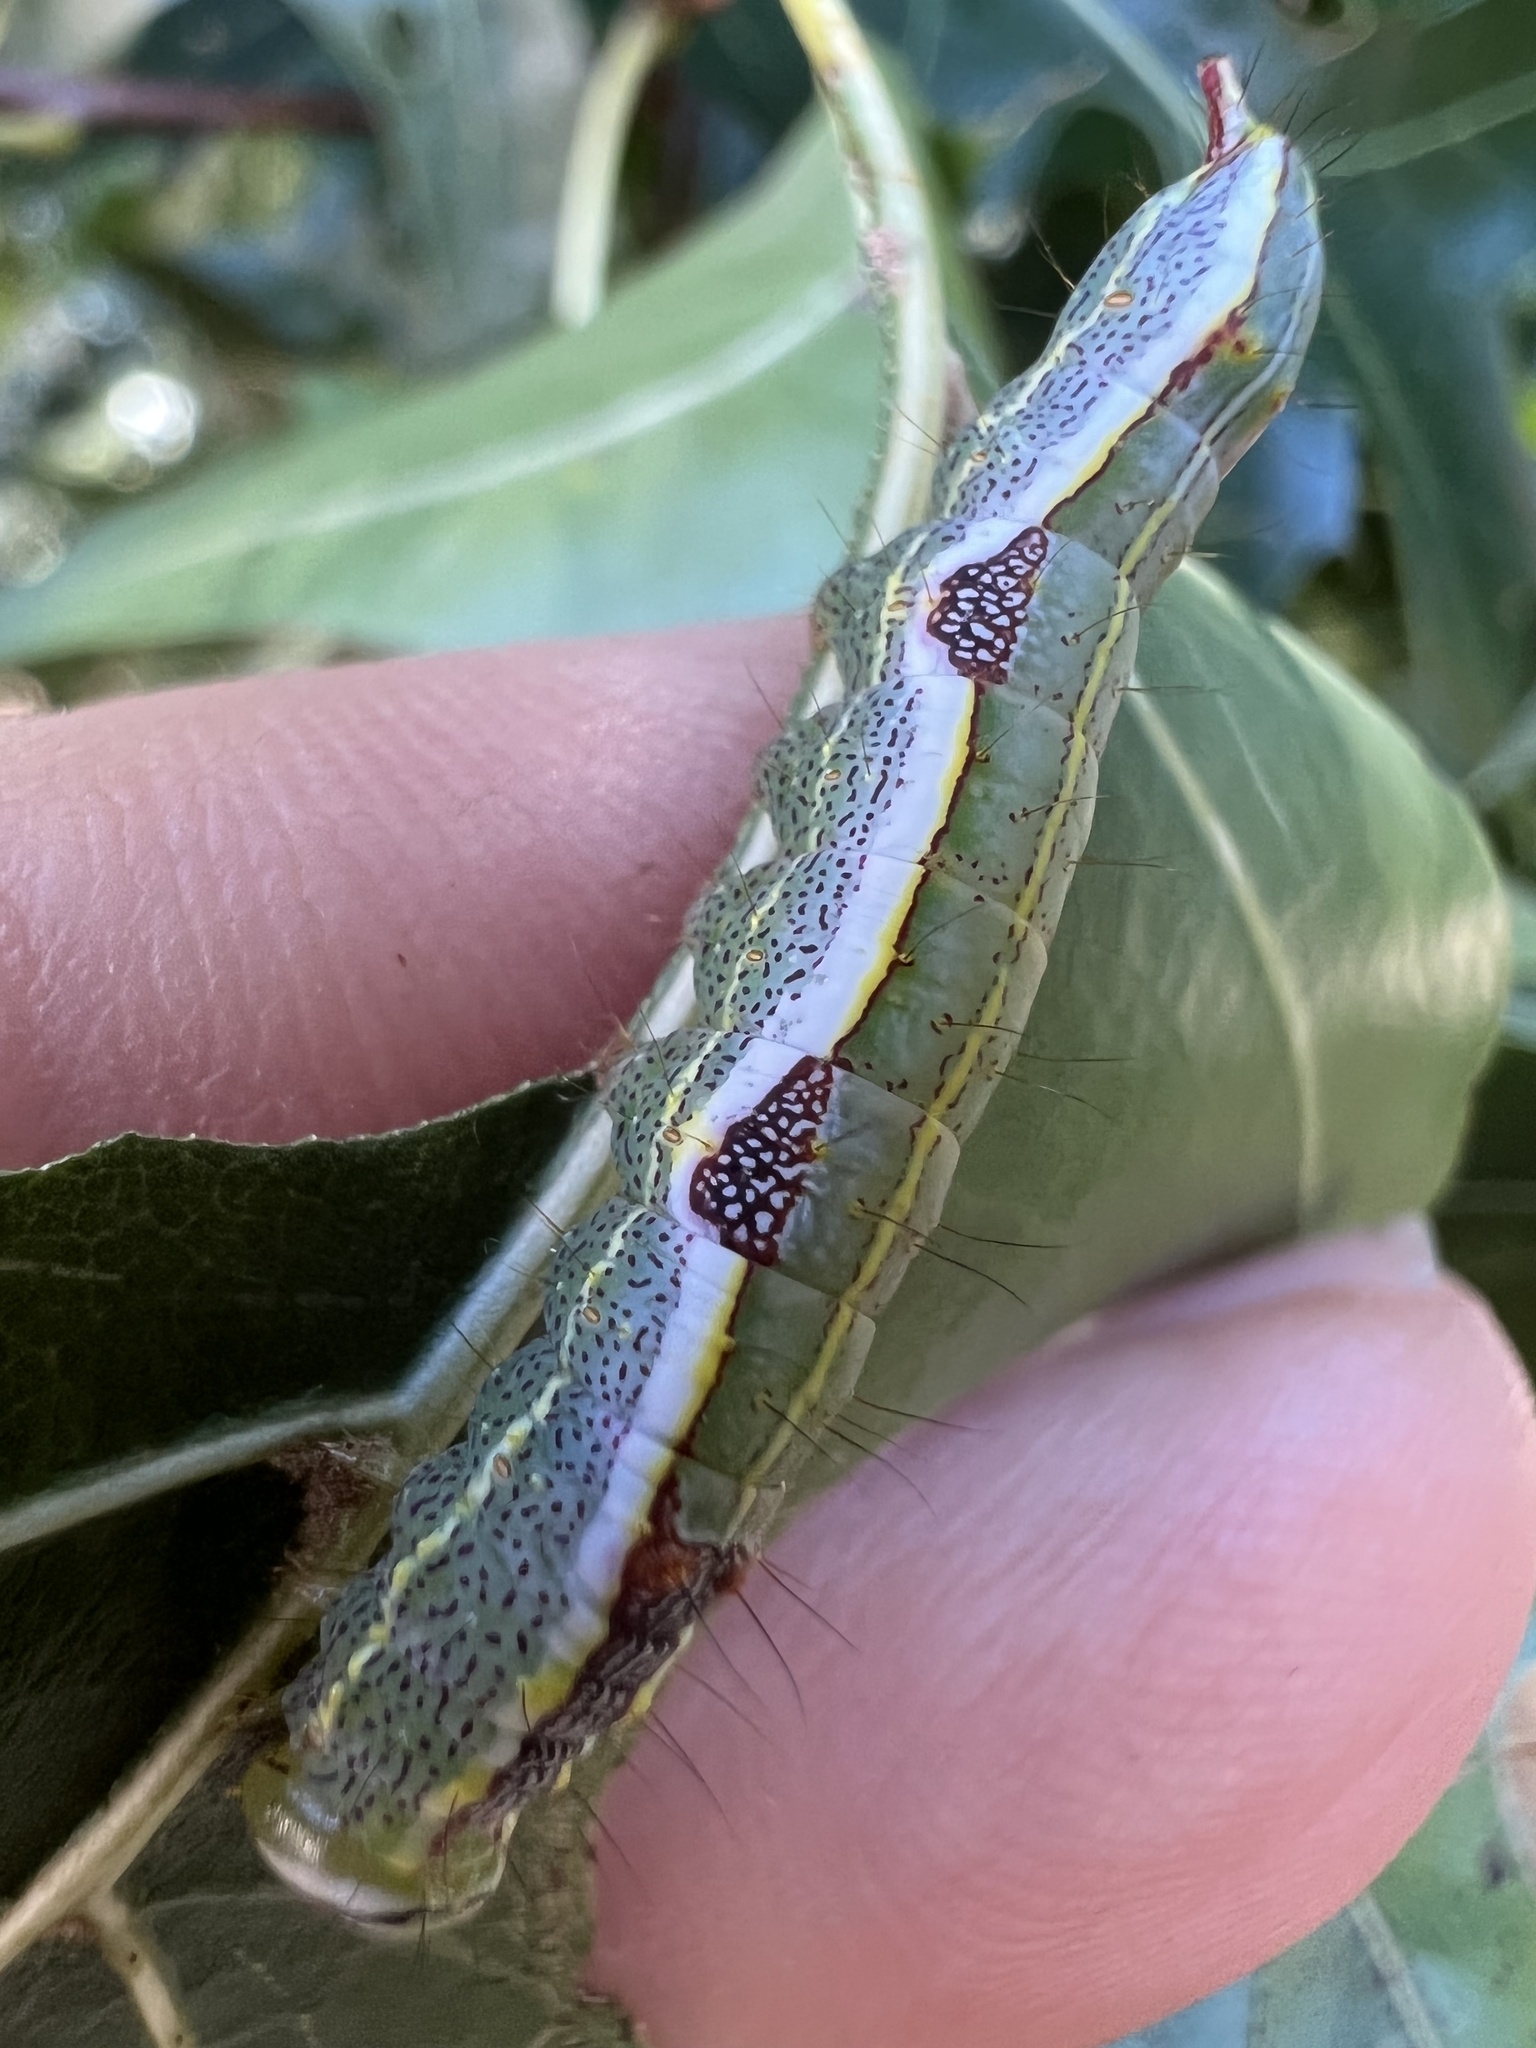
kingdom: Animalia
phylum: Arthropoda
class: Insecta
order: Lepidoptera
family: Notodontidae
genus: Lochmaeus
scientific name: Lochmaeus manteo
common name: Variable oakleaf caterpillar moth
